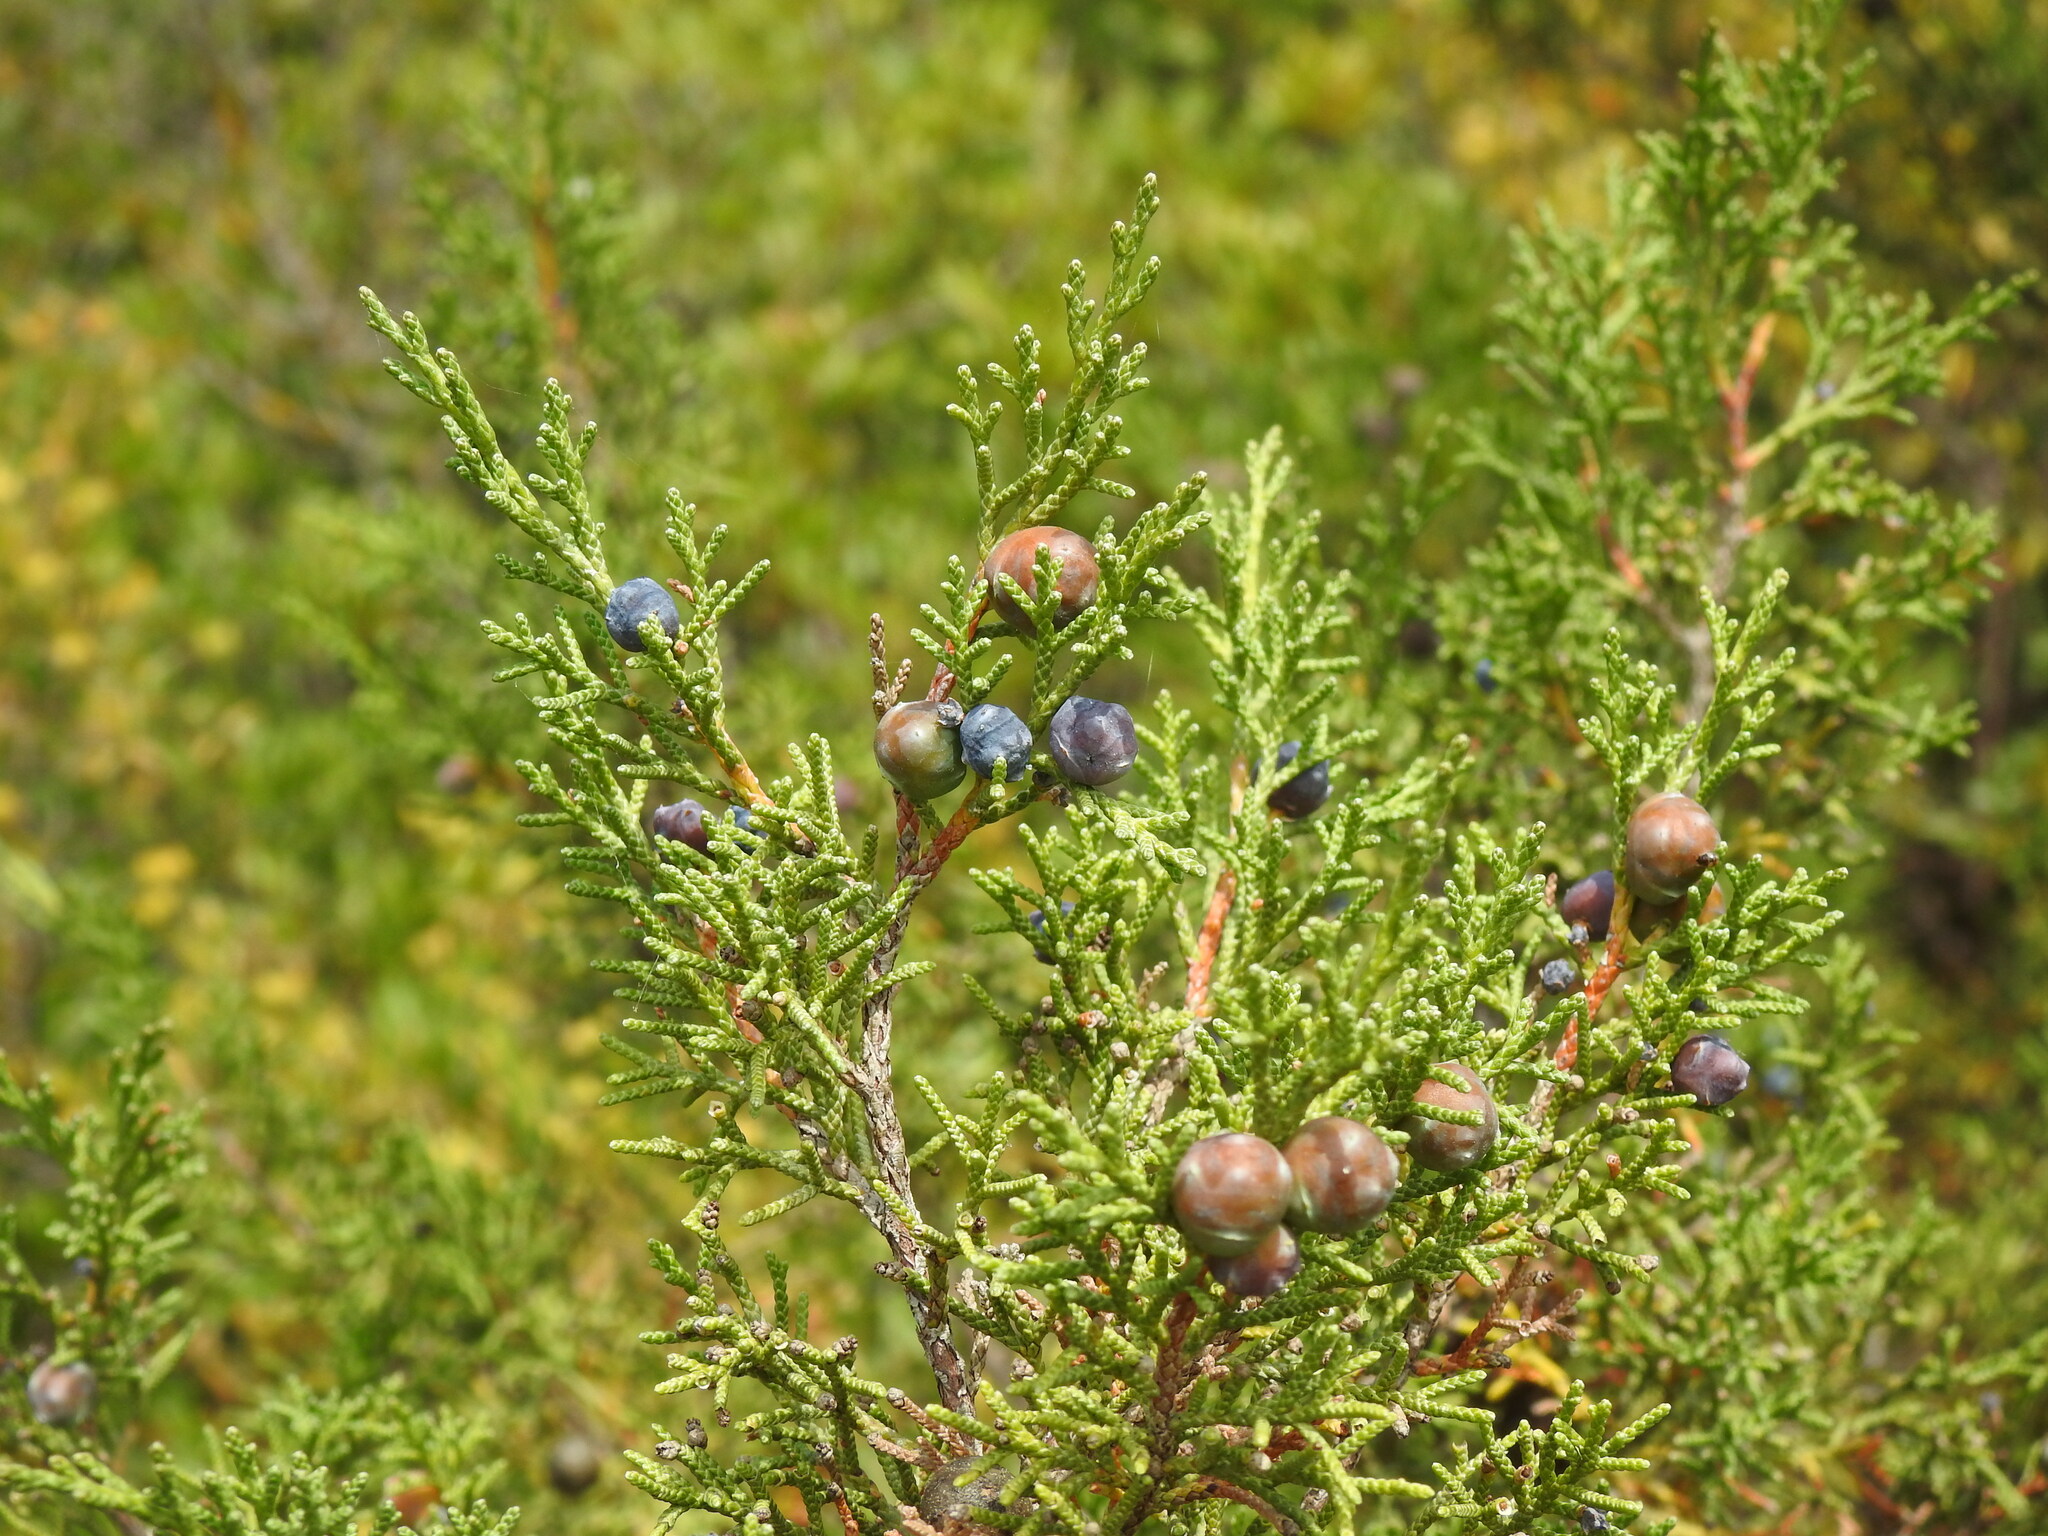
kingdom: Plantae
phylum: Tracheophyta
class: Pinopsida
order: Pinales
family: Cupressaceae
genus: Juniperus
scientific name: Juniperus phoenicea
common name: Phoenician juniper
